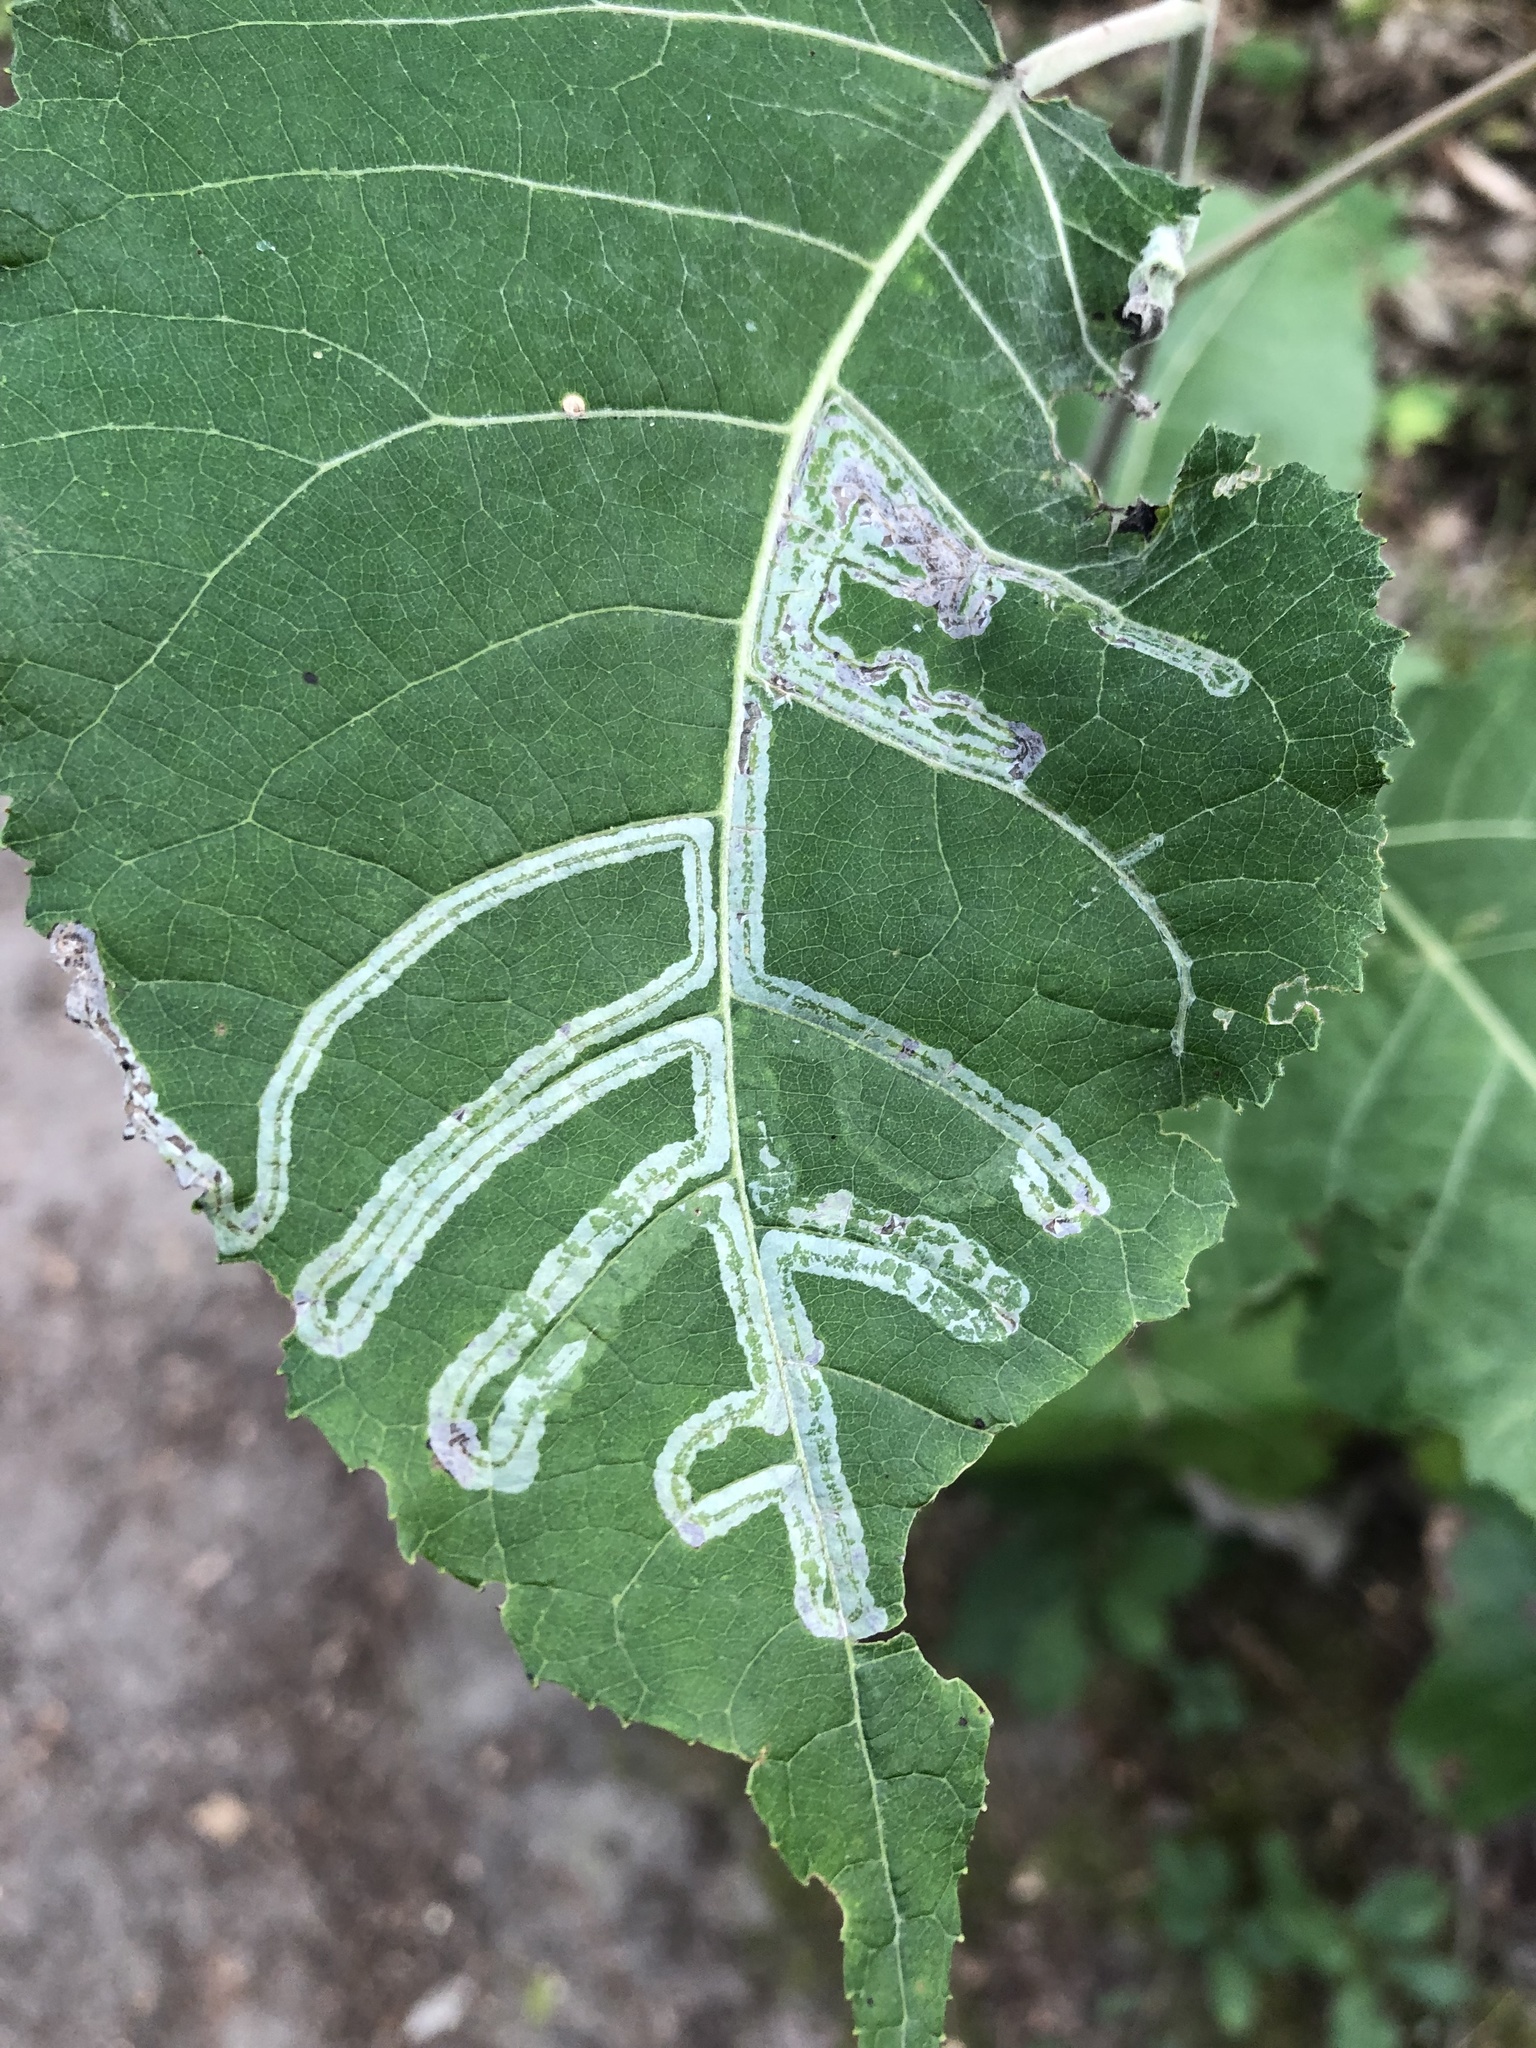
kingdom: Animalia
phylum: Arthropoda
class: Insecta
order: Lepidoptera
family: Gracillariidae
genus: Phyllocnistis
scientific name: Phyllocnistis populiella
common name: Aspen serpentine leafminer moth
